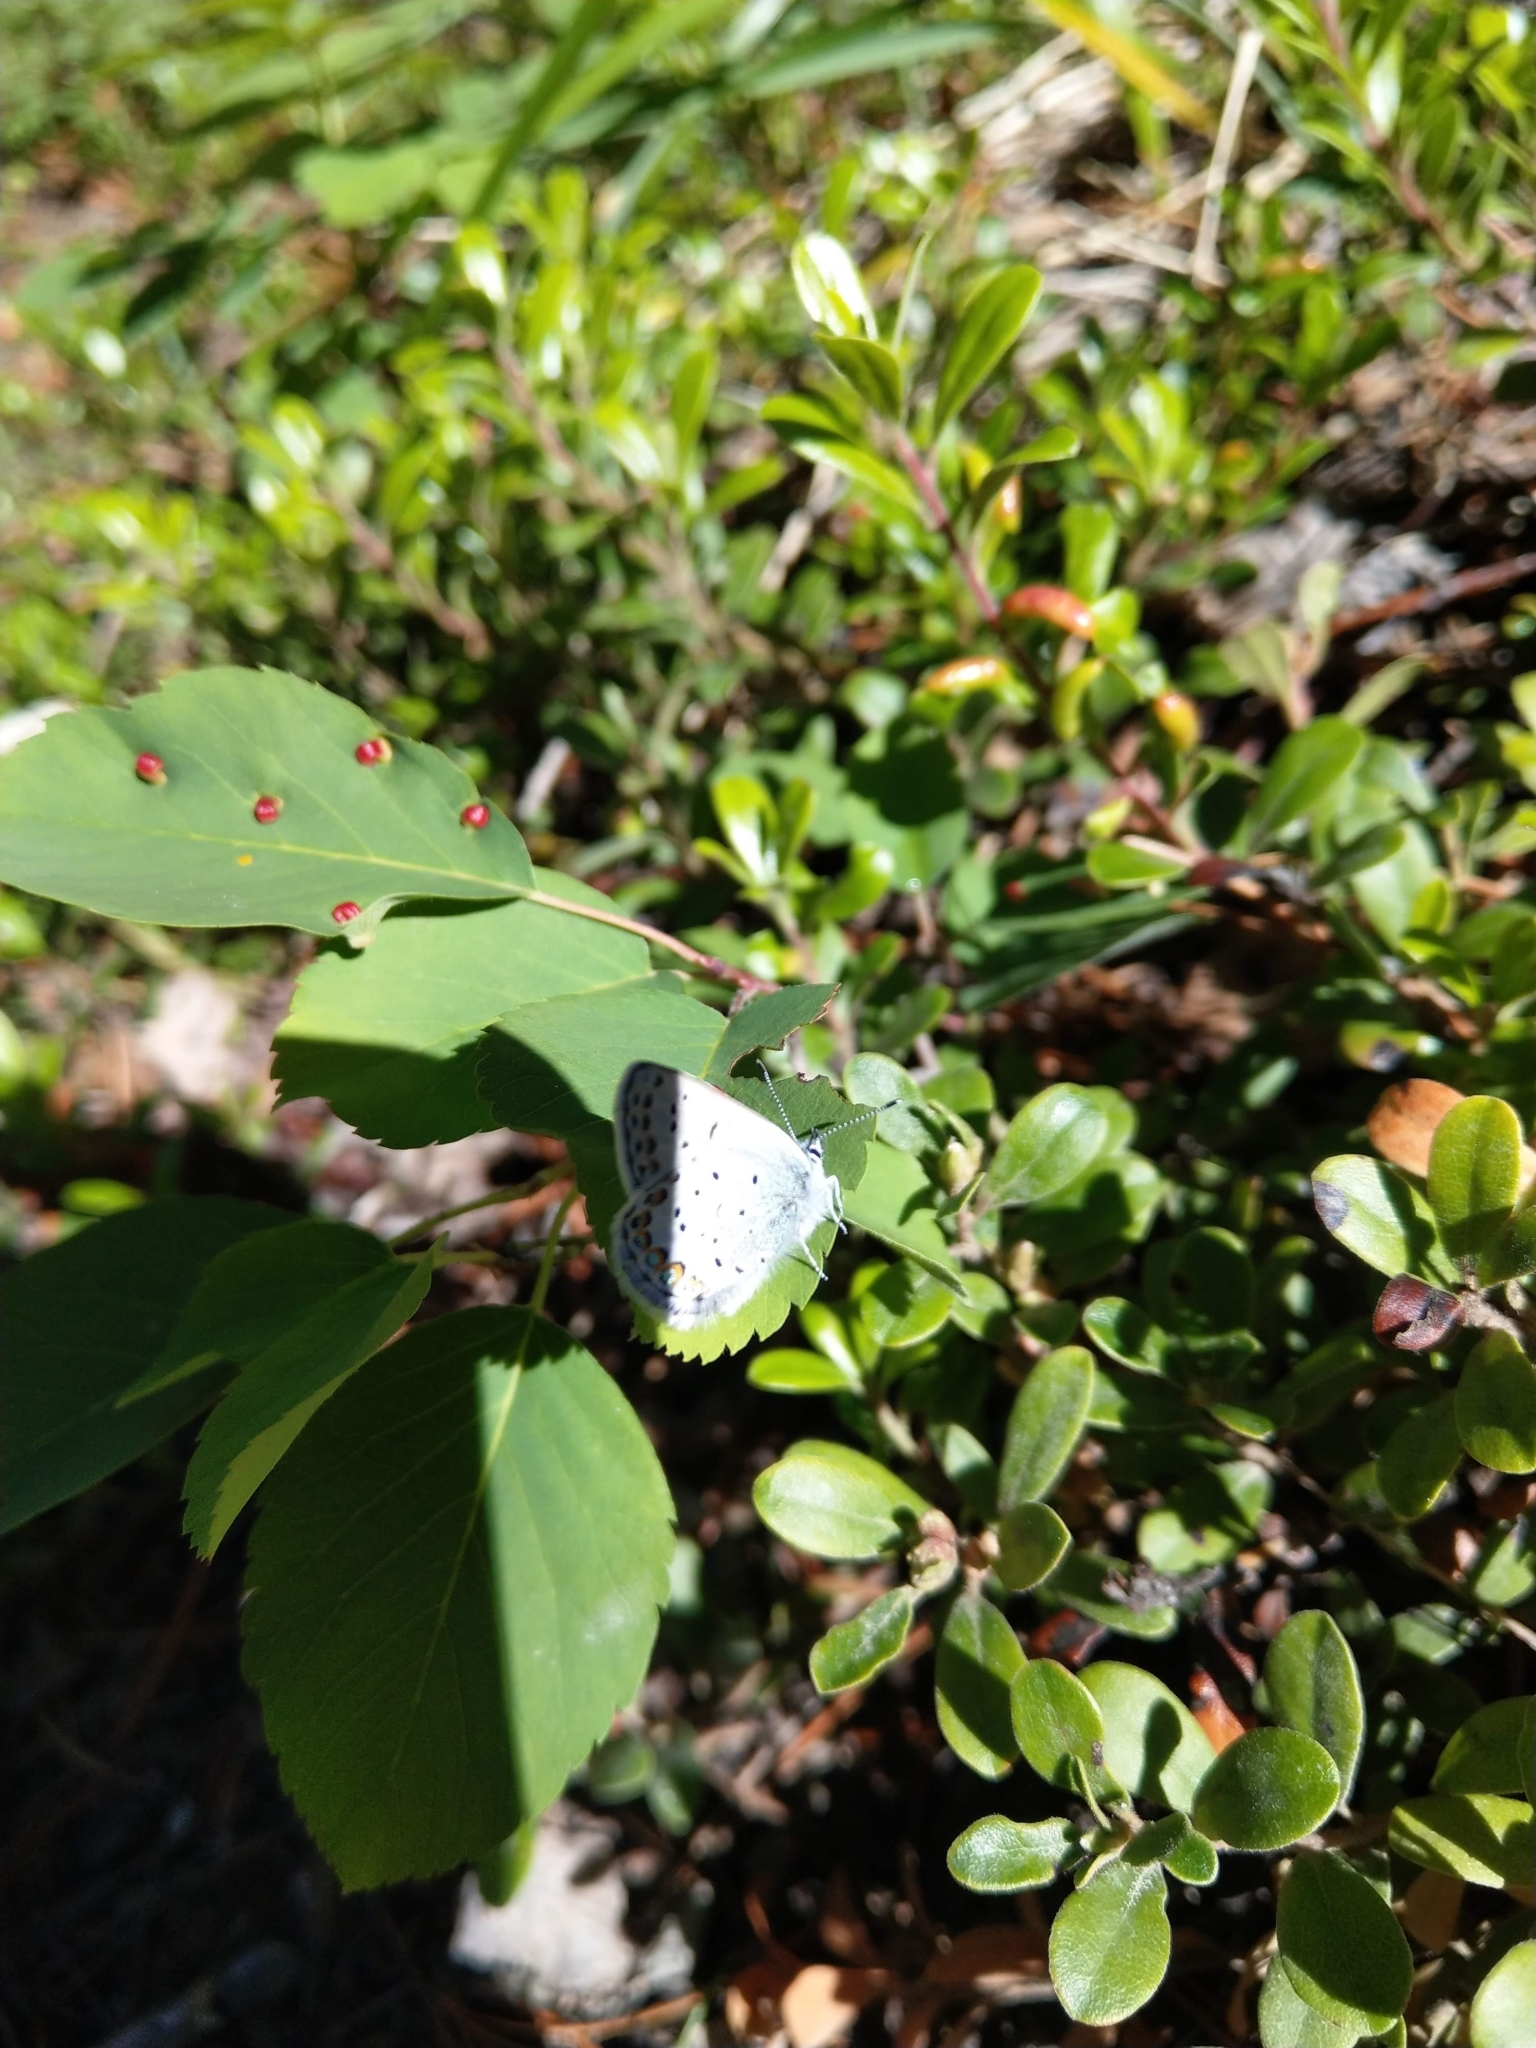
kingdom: Animalia
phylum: Arthropoda
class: Insecta
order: Lepidoptera
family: Lycaenidae
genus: Lycaeides
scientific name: Lycaeides idas
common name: Northern blue
